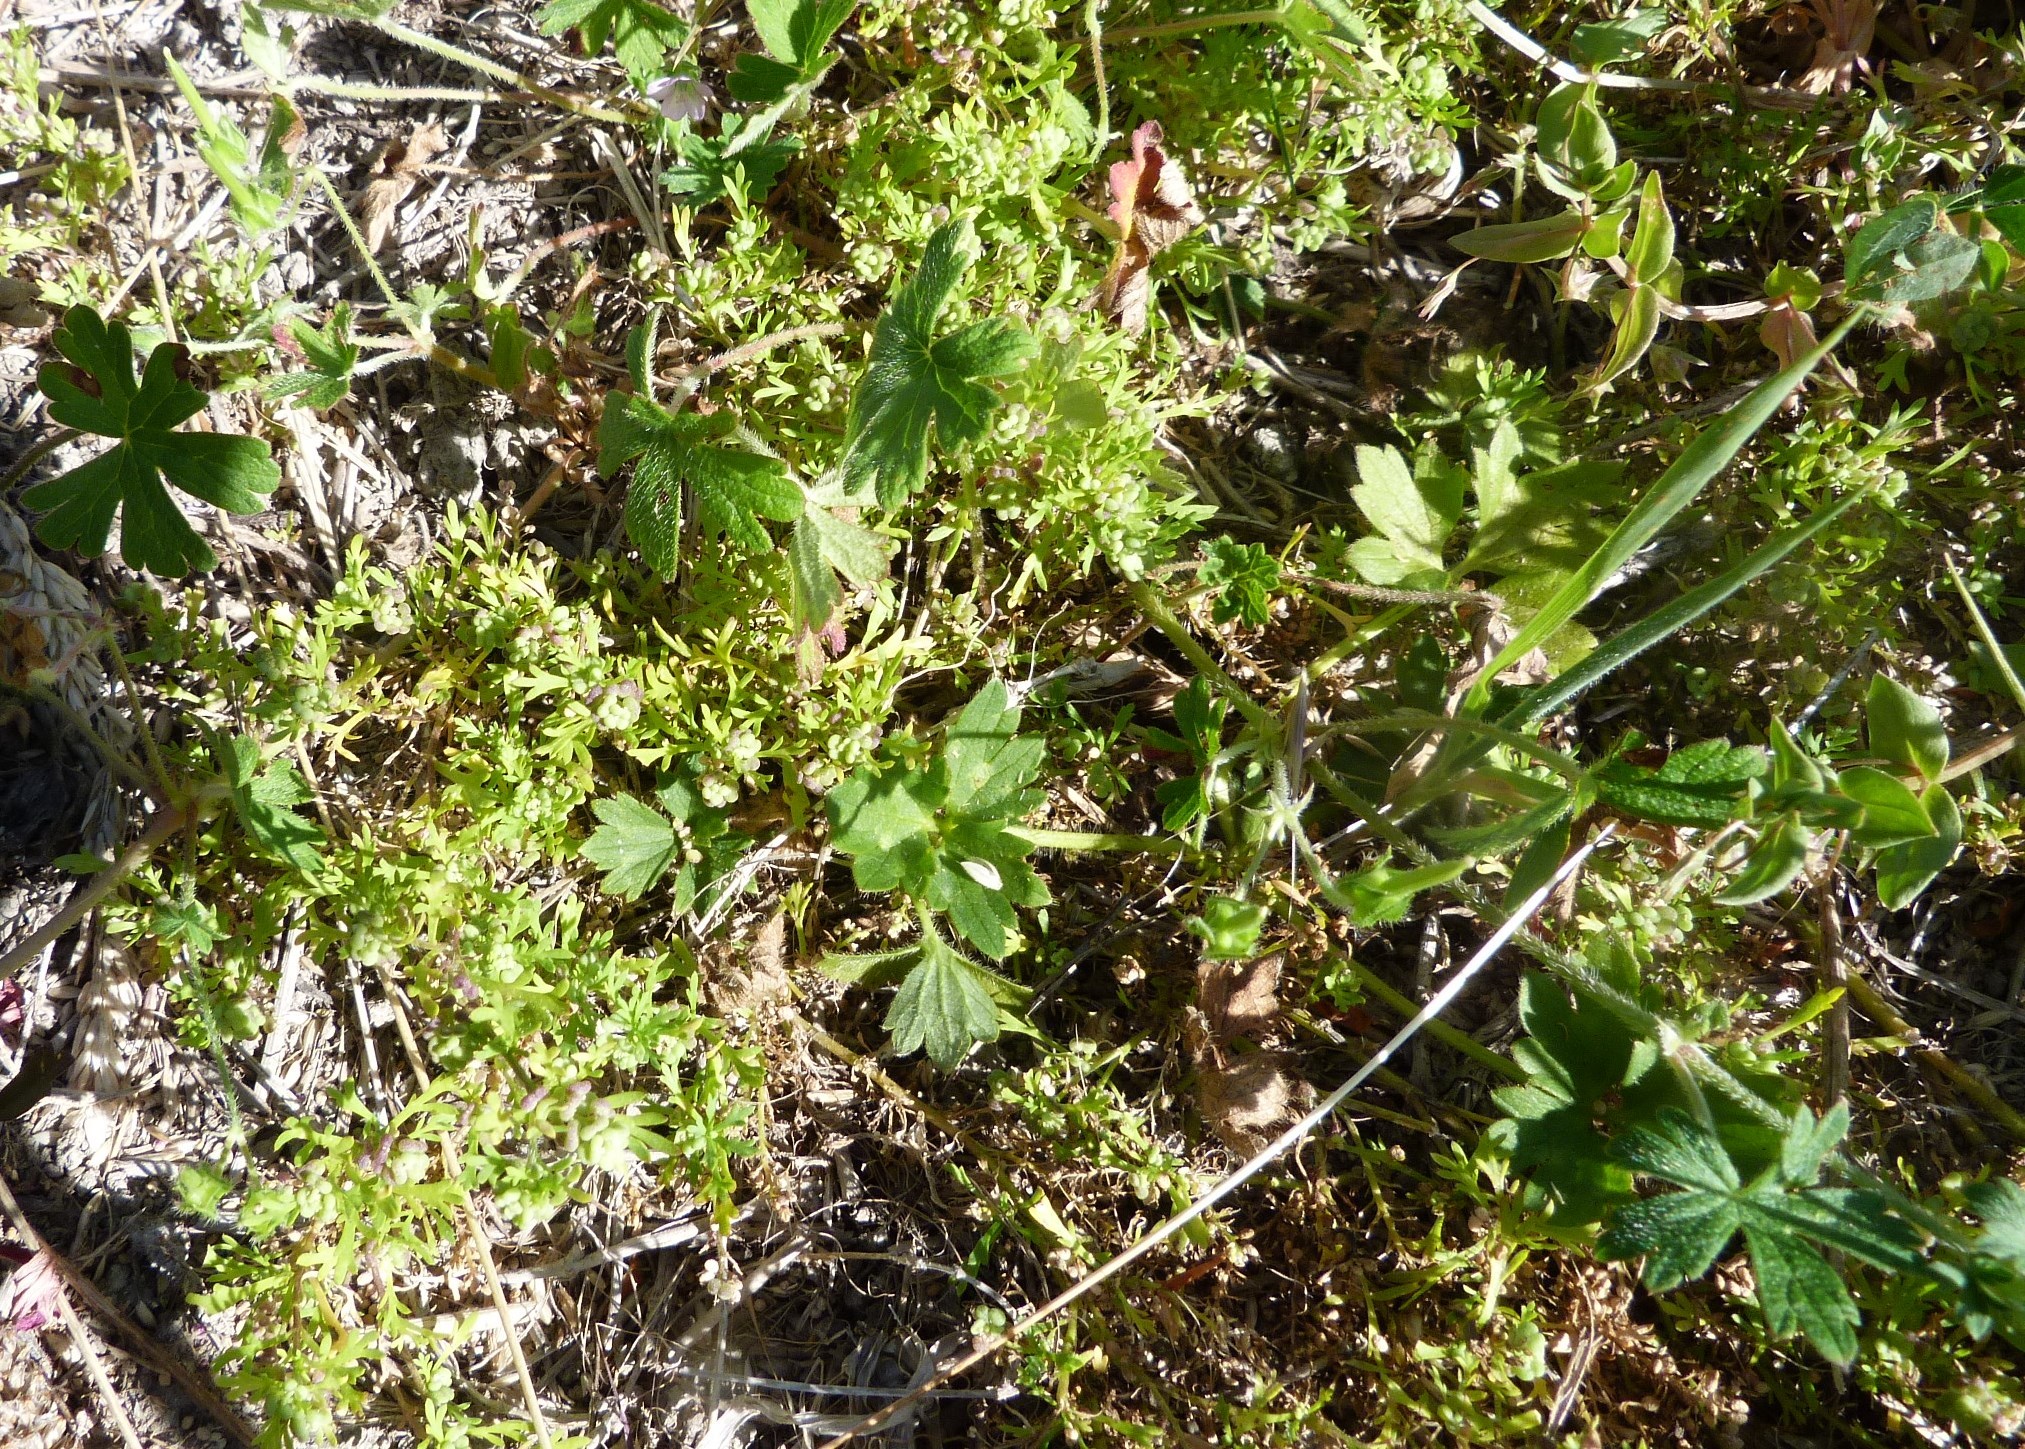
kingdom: Plantae
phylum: Tracheophyta
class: Magnoliopsida
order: Brassicales
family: Brassicaceae
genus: Lepidium
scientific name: Lepidium didymum
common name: Lesser swinecress
